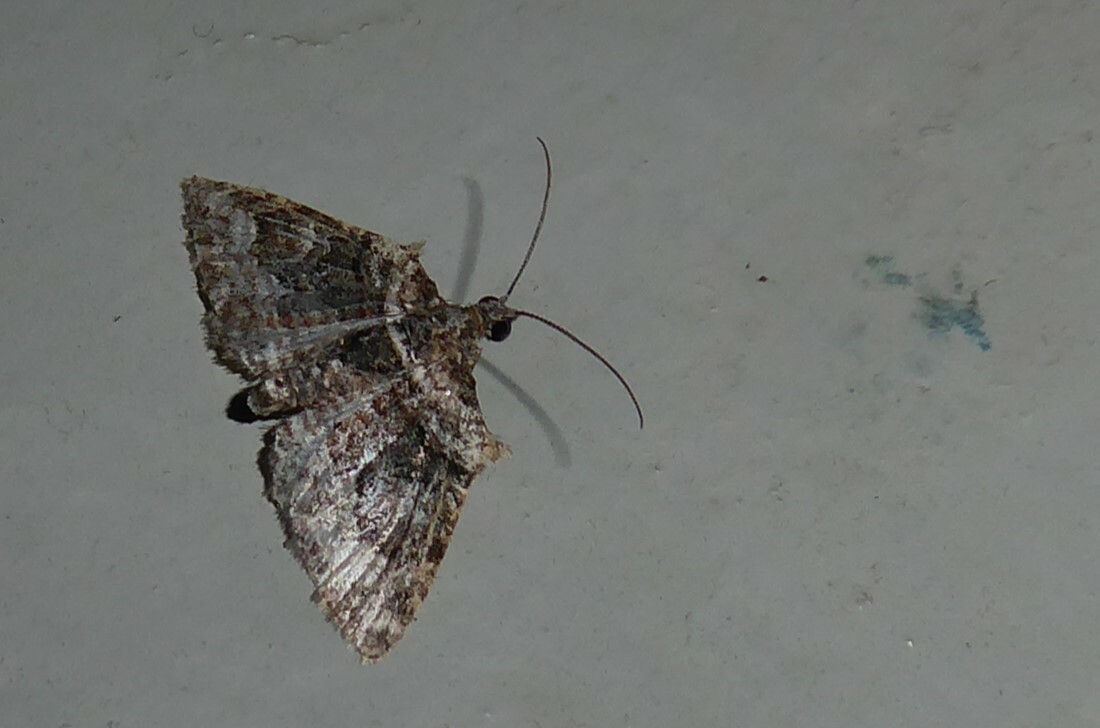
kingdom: Animalia
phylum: Arthropoda
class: Insecta
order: Lepidoptera
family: Geometridae
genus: Phrissogonus
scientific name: Phrissogonus laticostata
